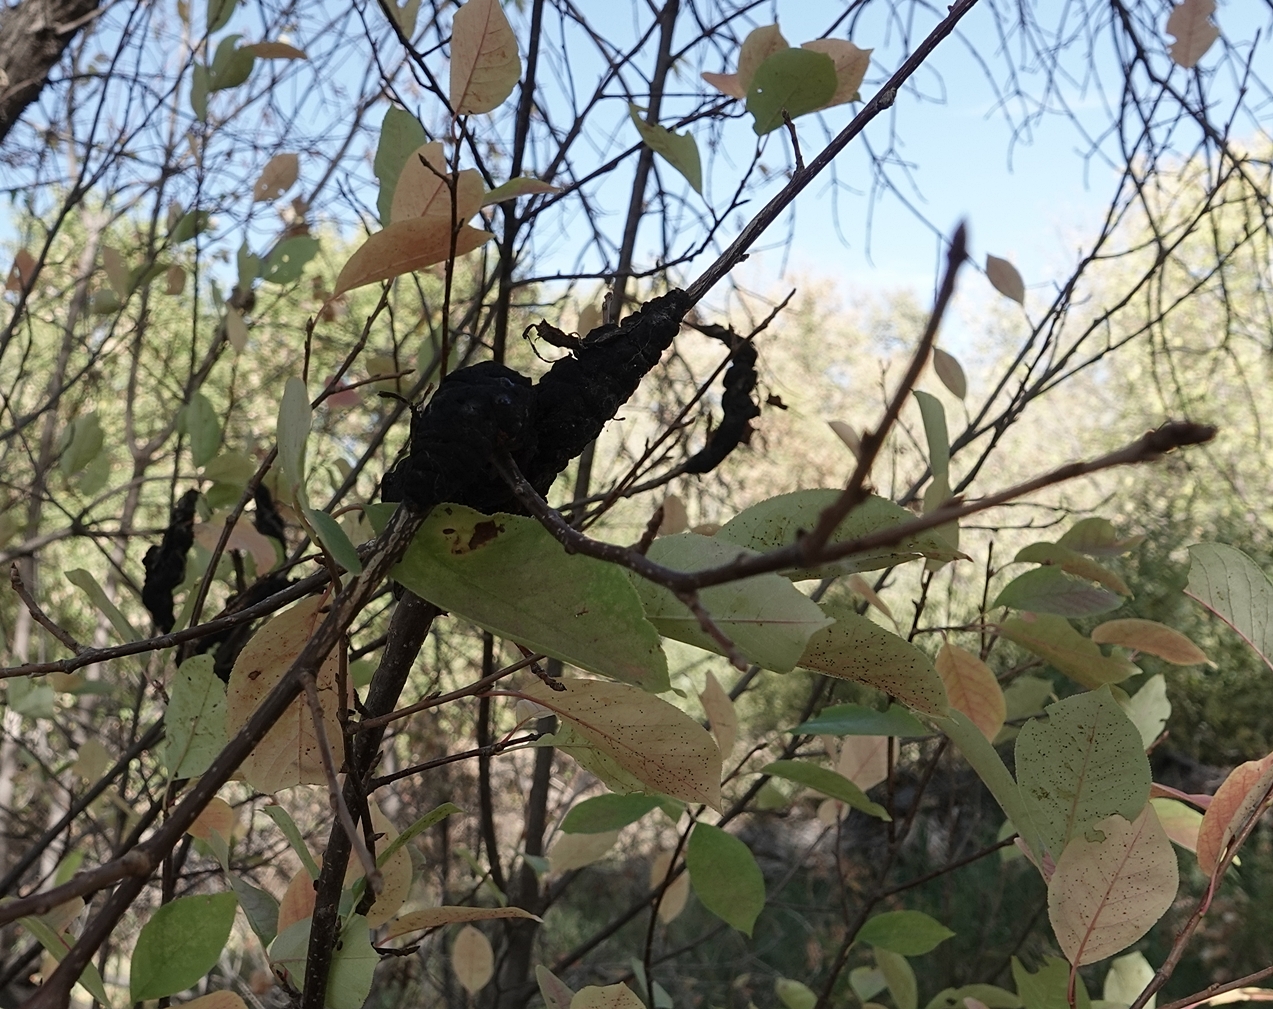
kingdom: Fungi
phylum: Ascomycota
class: Dothideomycetes
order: Venturiales
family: Venturiaceae
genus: Apiosporina
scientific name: Apiosporina morbosa
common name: Black knot
